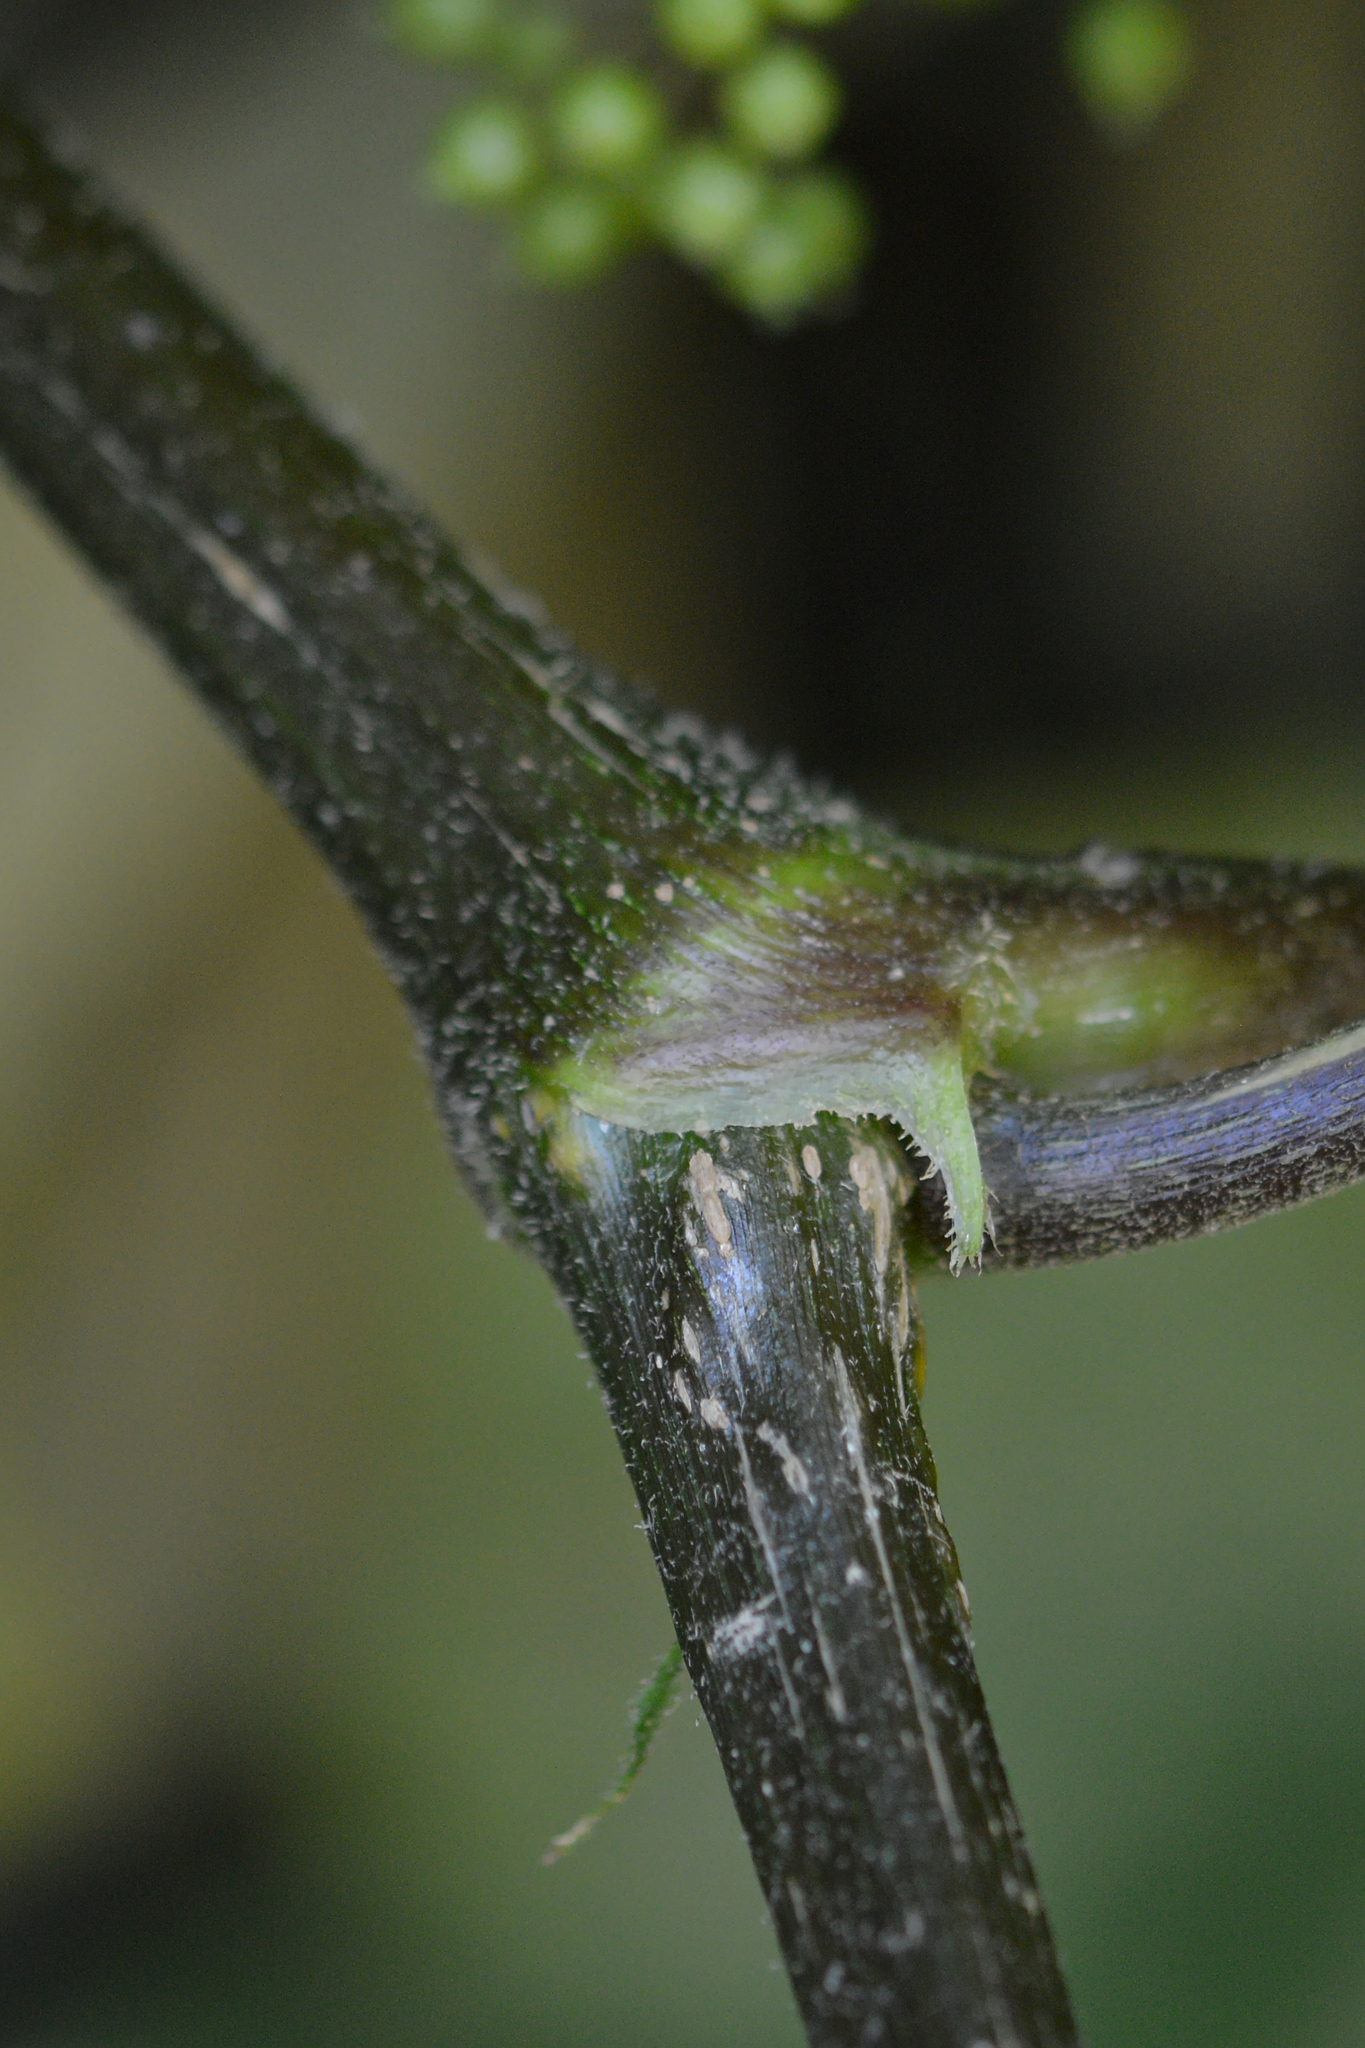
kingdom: Plantae
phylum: Tracheophyta
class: Magnoliopsida
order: Apiales
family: Araliaceae
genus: Aralia
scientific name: Aralia racemosa
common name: American-spikenard
